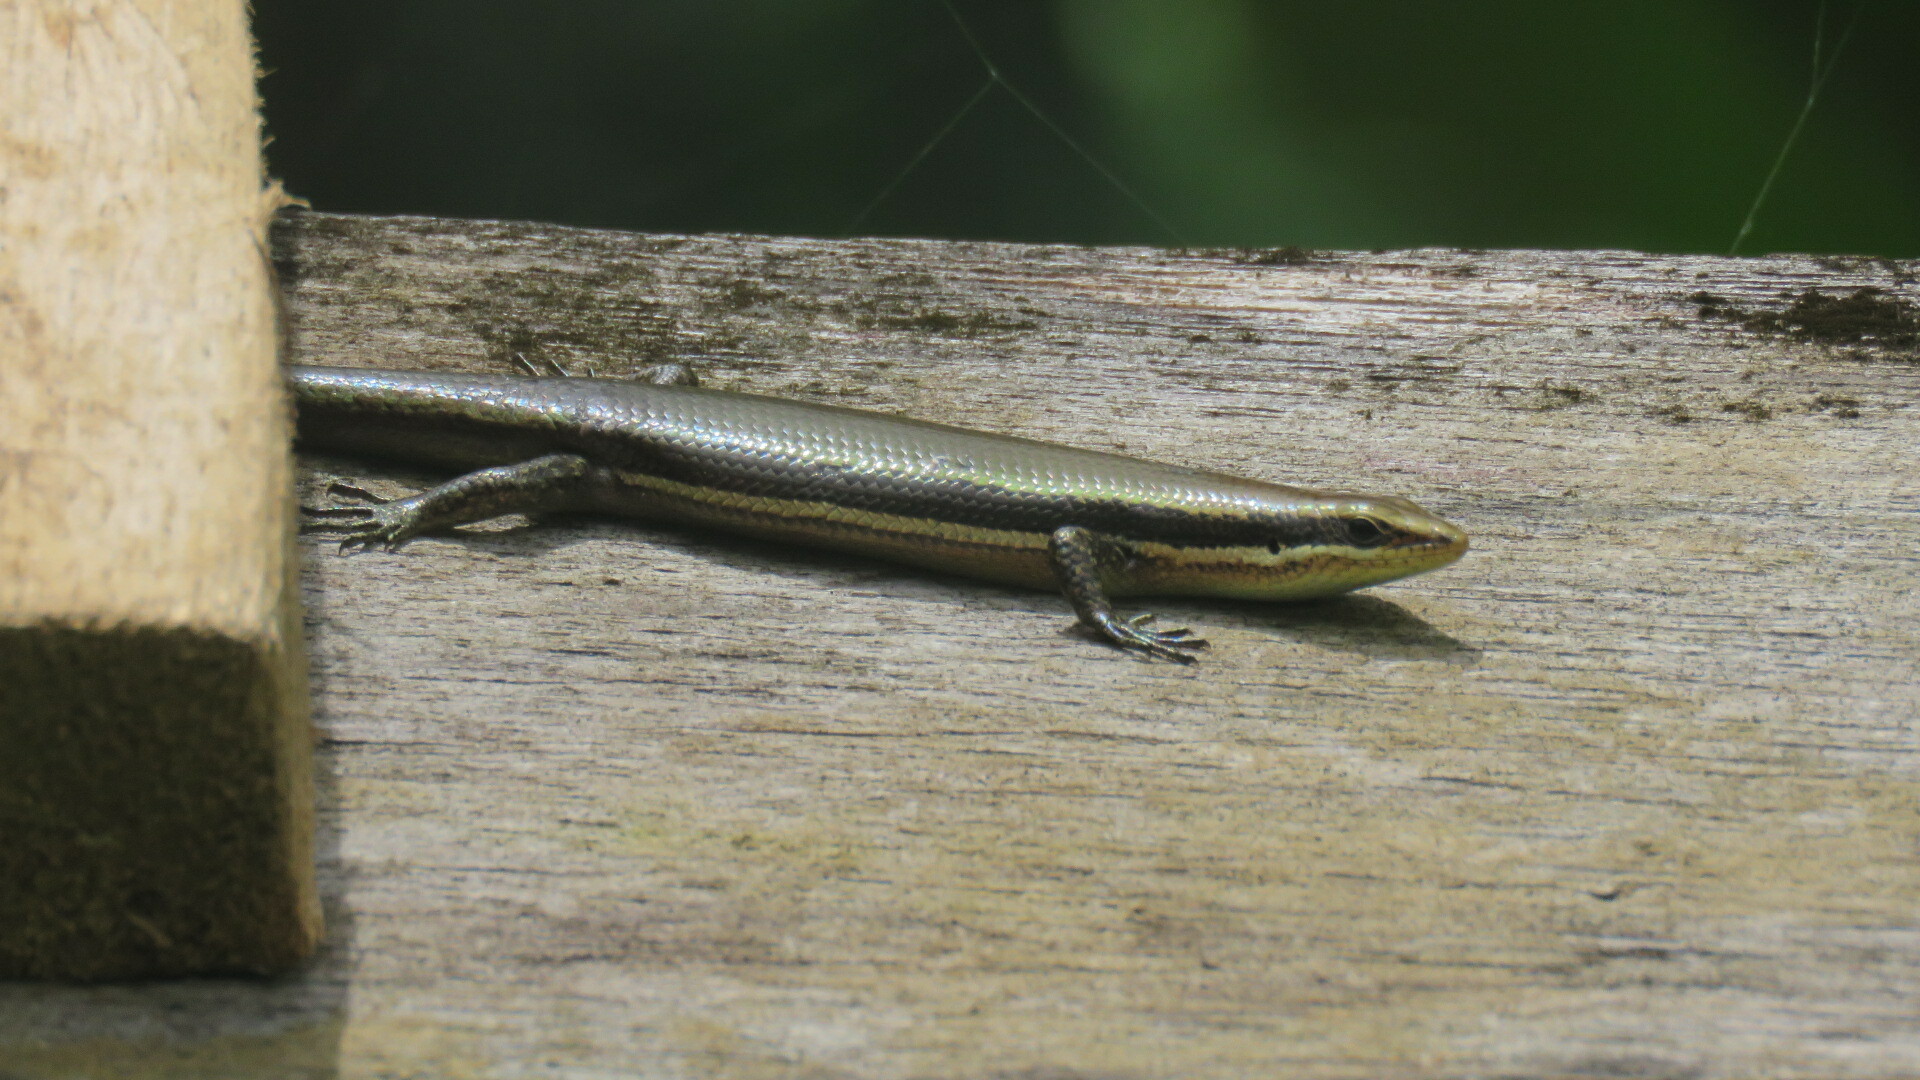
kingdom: Animalia
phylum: Chordata
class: Squamata
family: Scincidae
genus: Marisora
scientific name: Marisora alliacea
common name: Middle american four-lined skink
